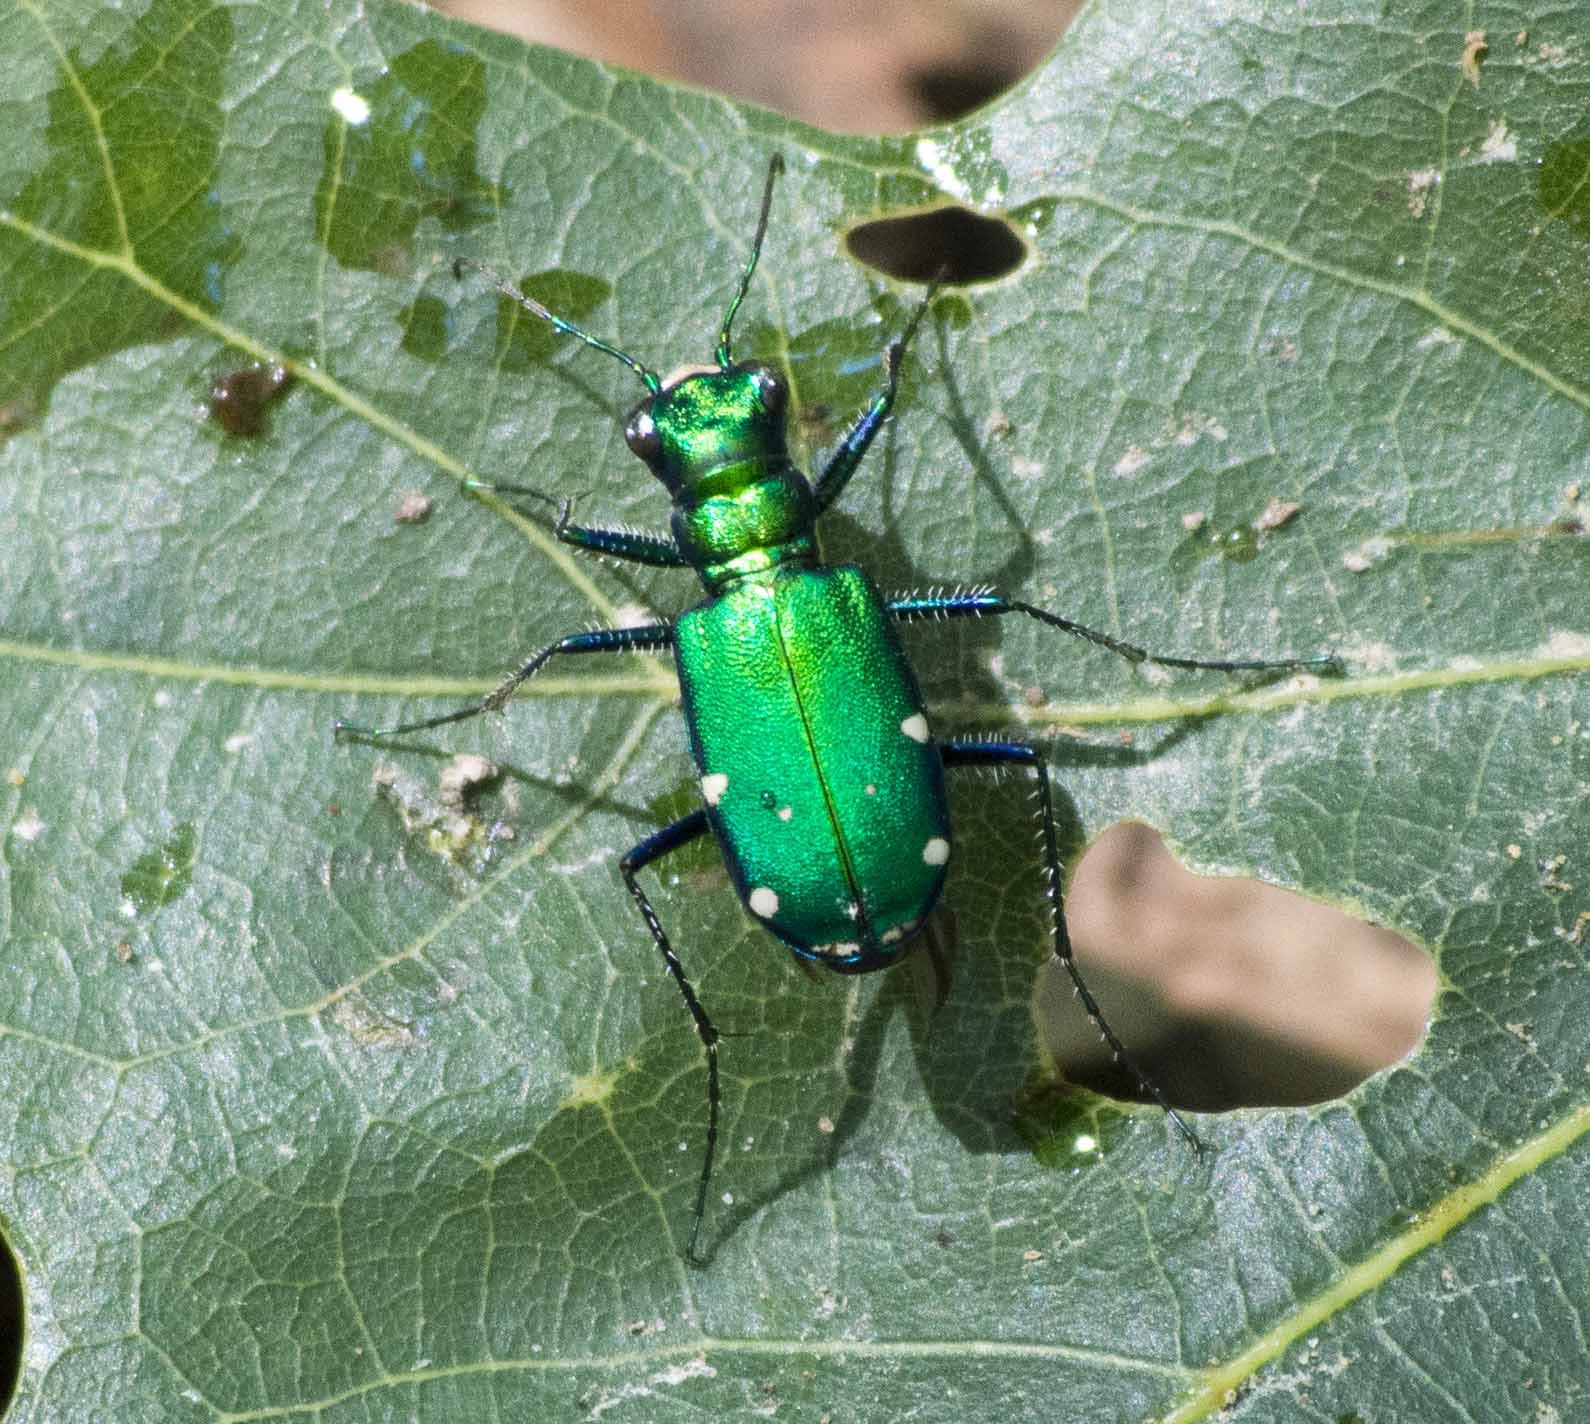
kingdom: Animalia
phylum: Arthropoda
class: Insecta
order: Coleoptera
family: Carabidae
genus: Cicindela
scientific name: Cicindela sexguttata
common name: Six-spotted tiger beetle
